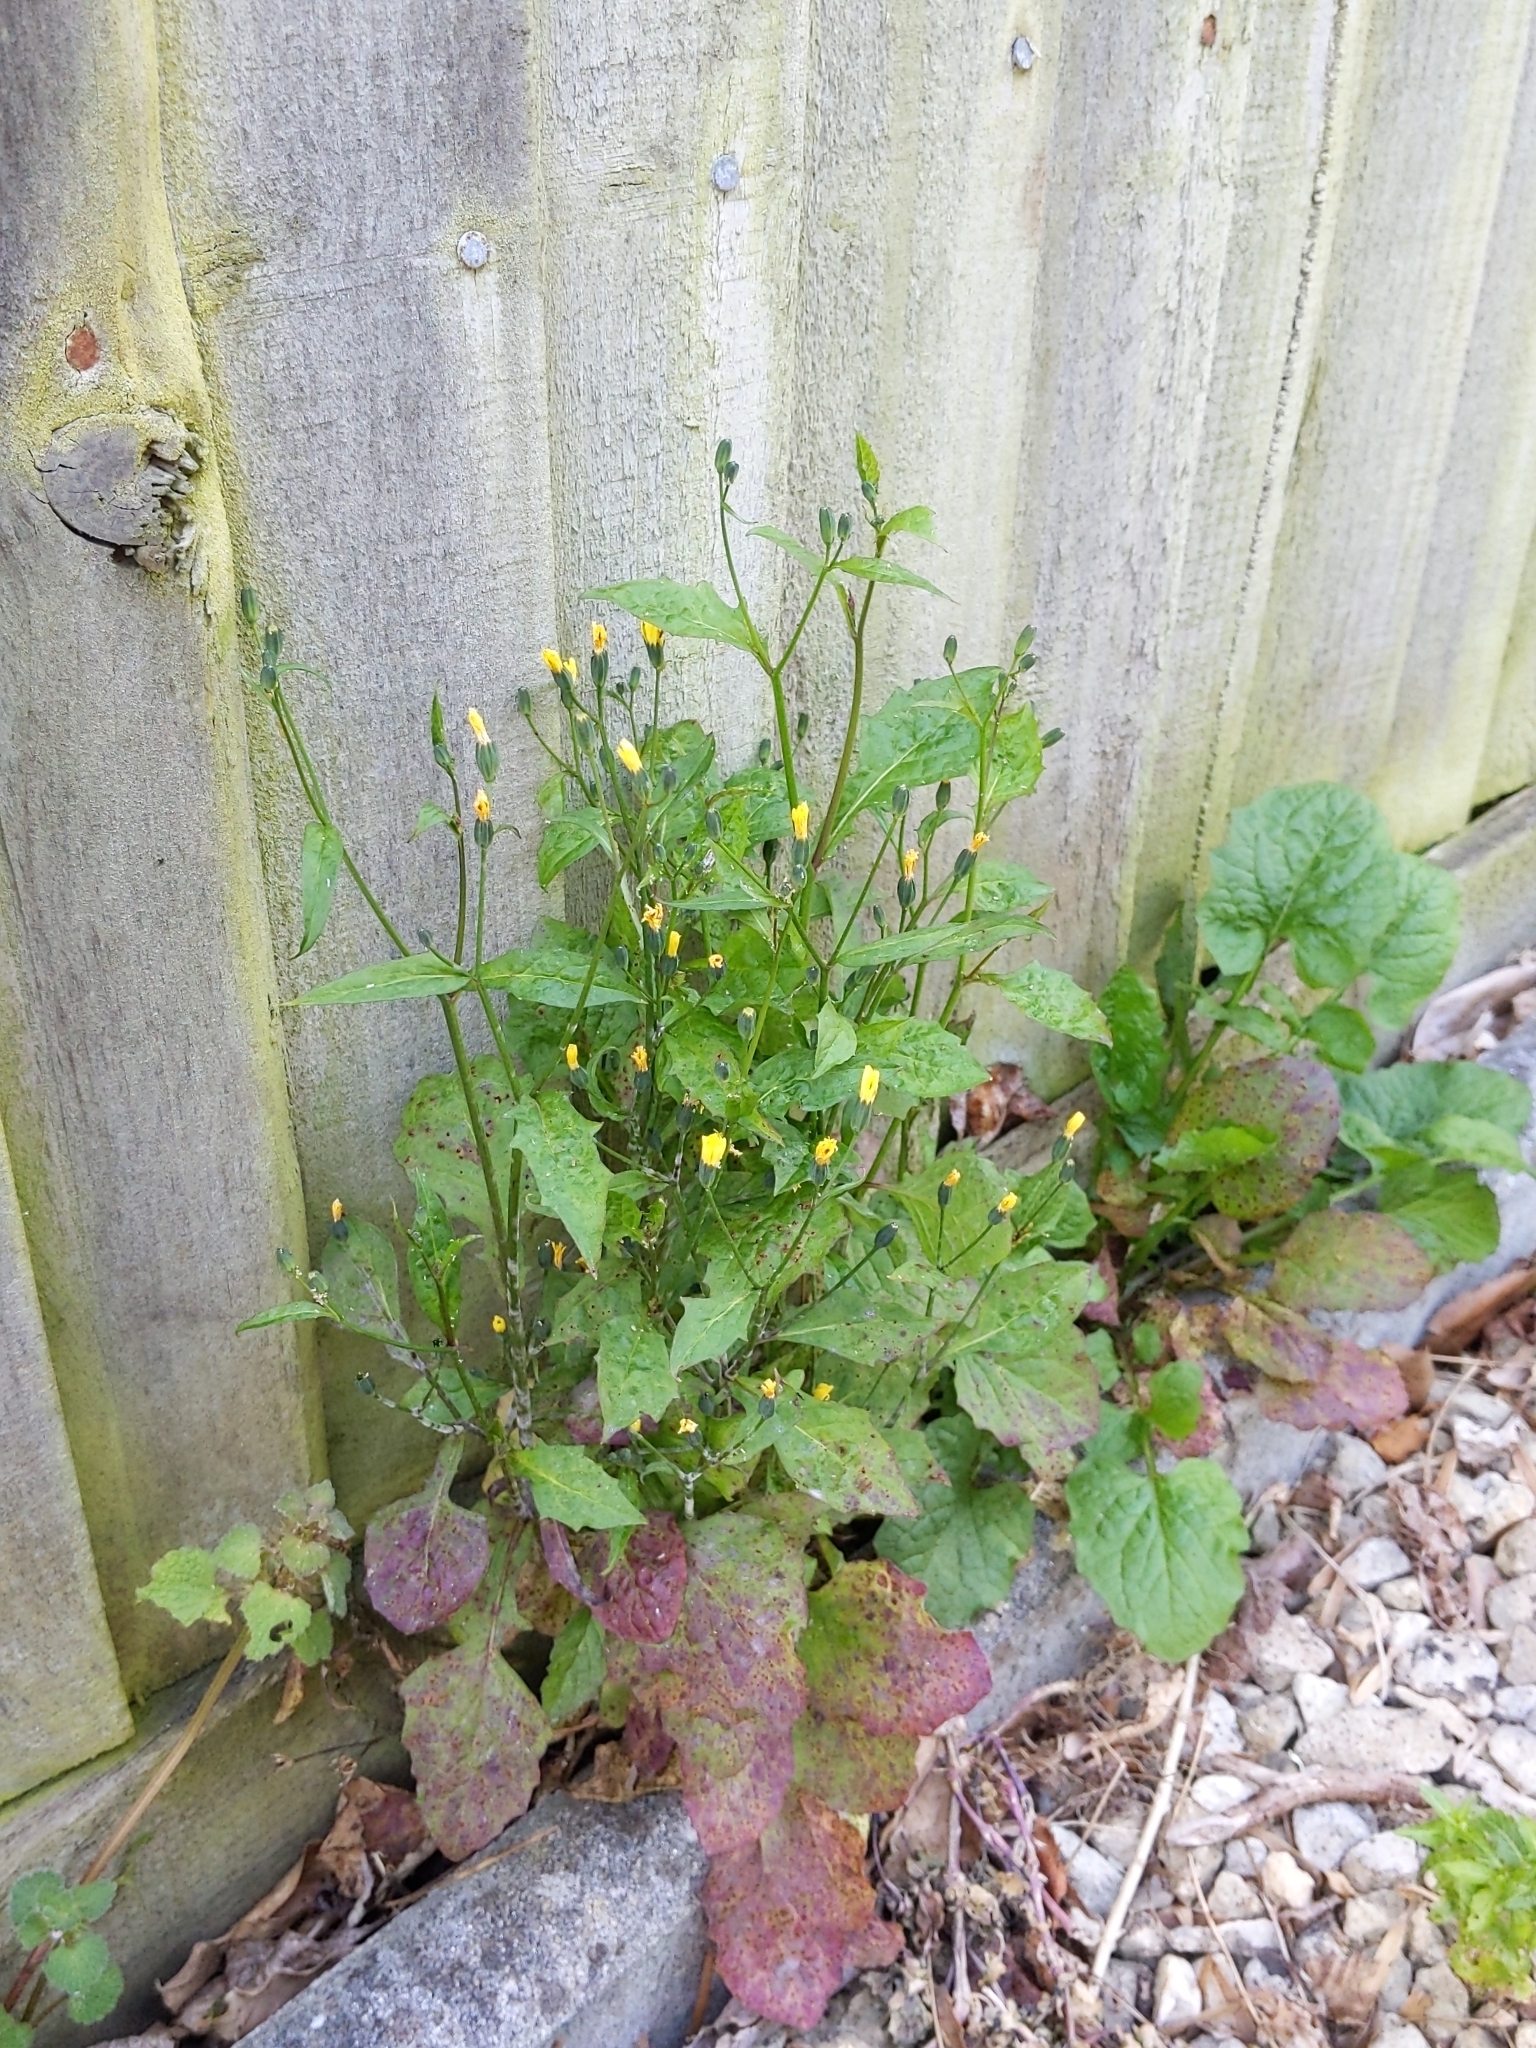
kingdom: Plantae
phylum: Tracheophyta
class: Magnoliopsida
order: Asterales
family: Asteraceae
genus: Lapsana
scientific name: Lapsana communis
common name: Nipplewort
